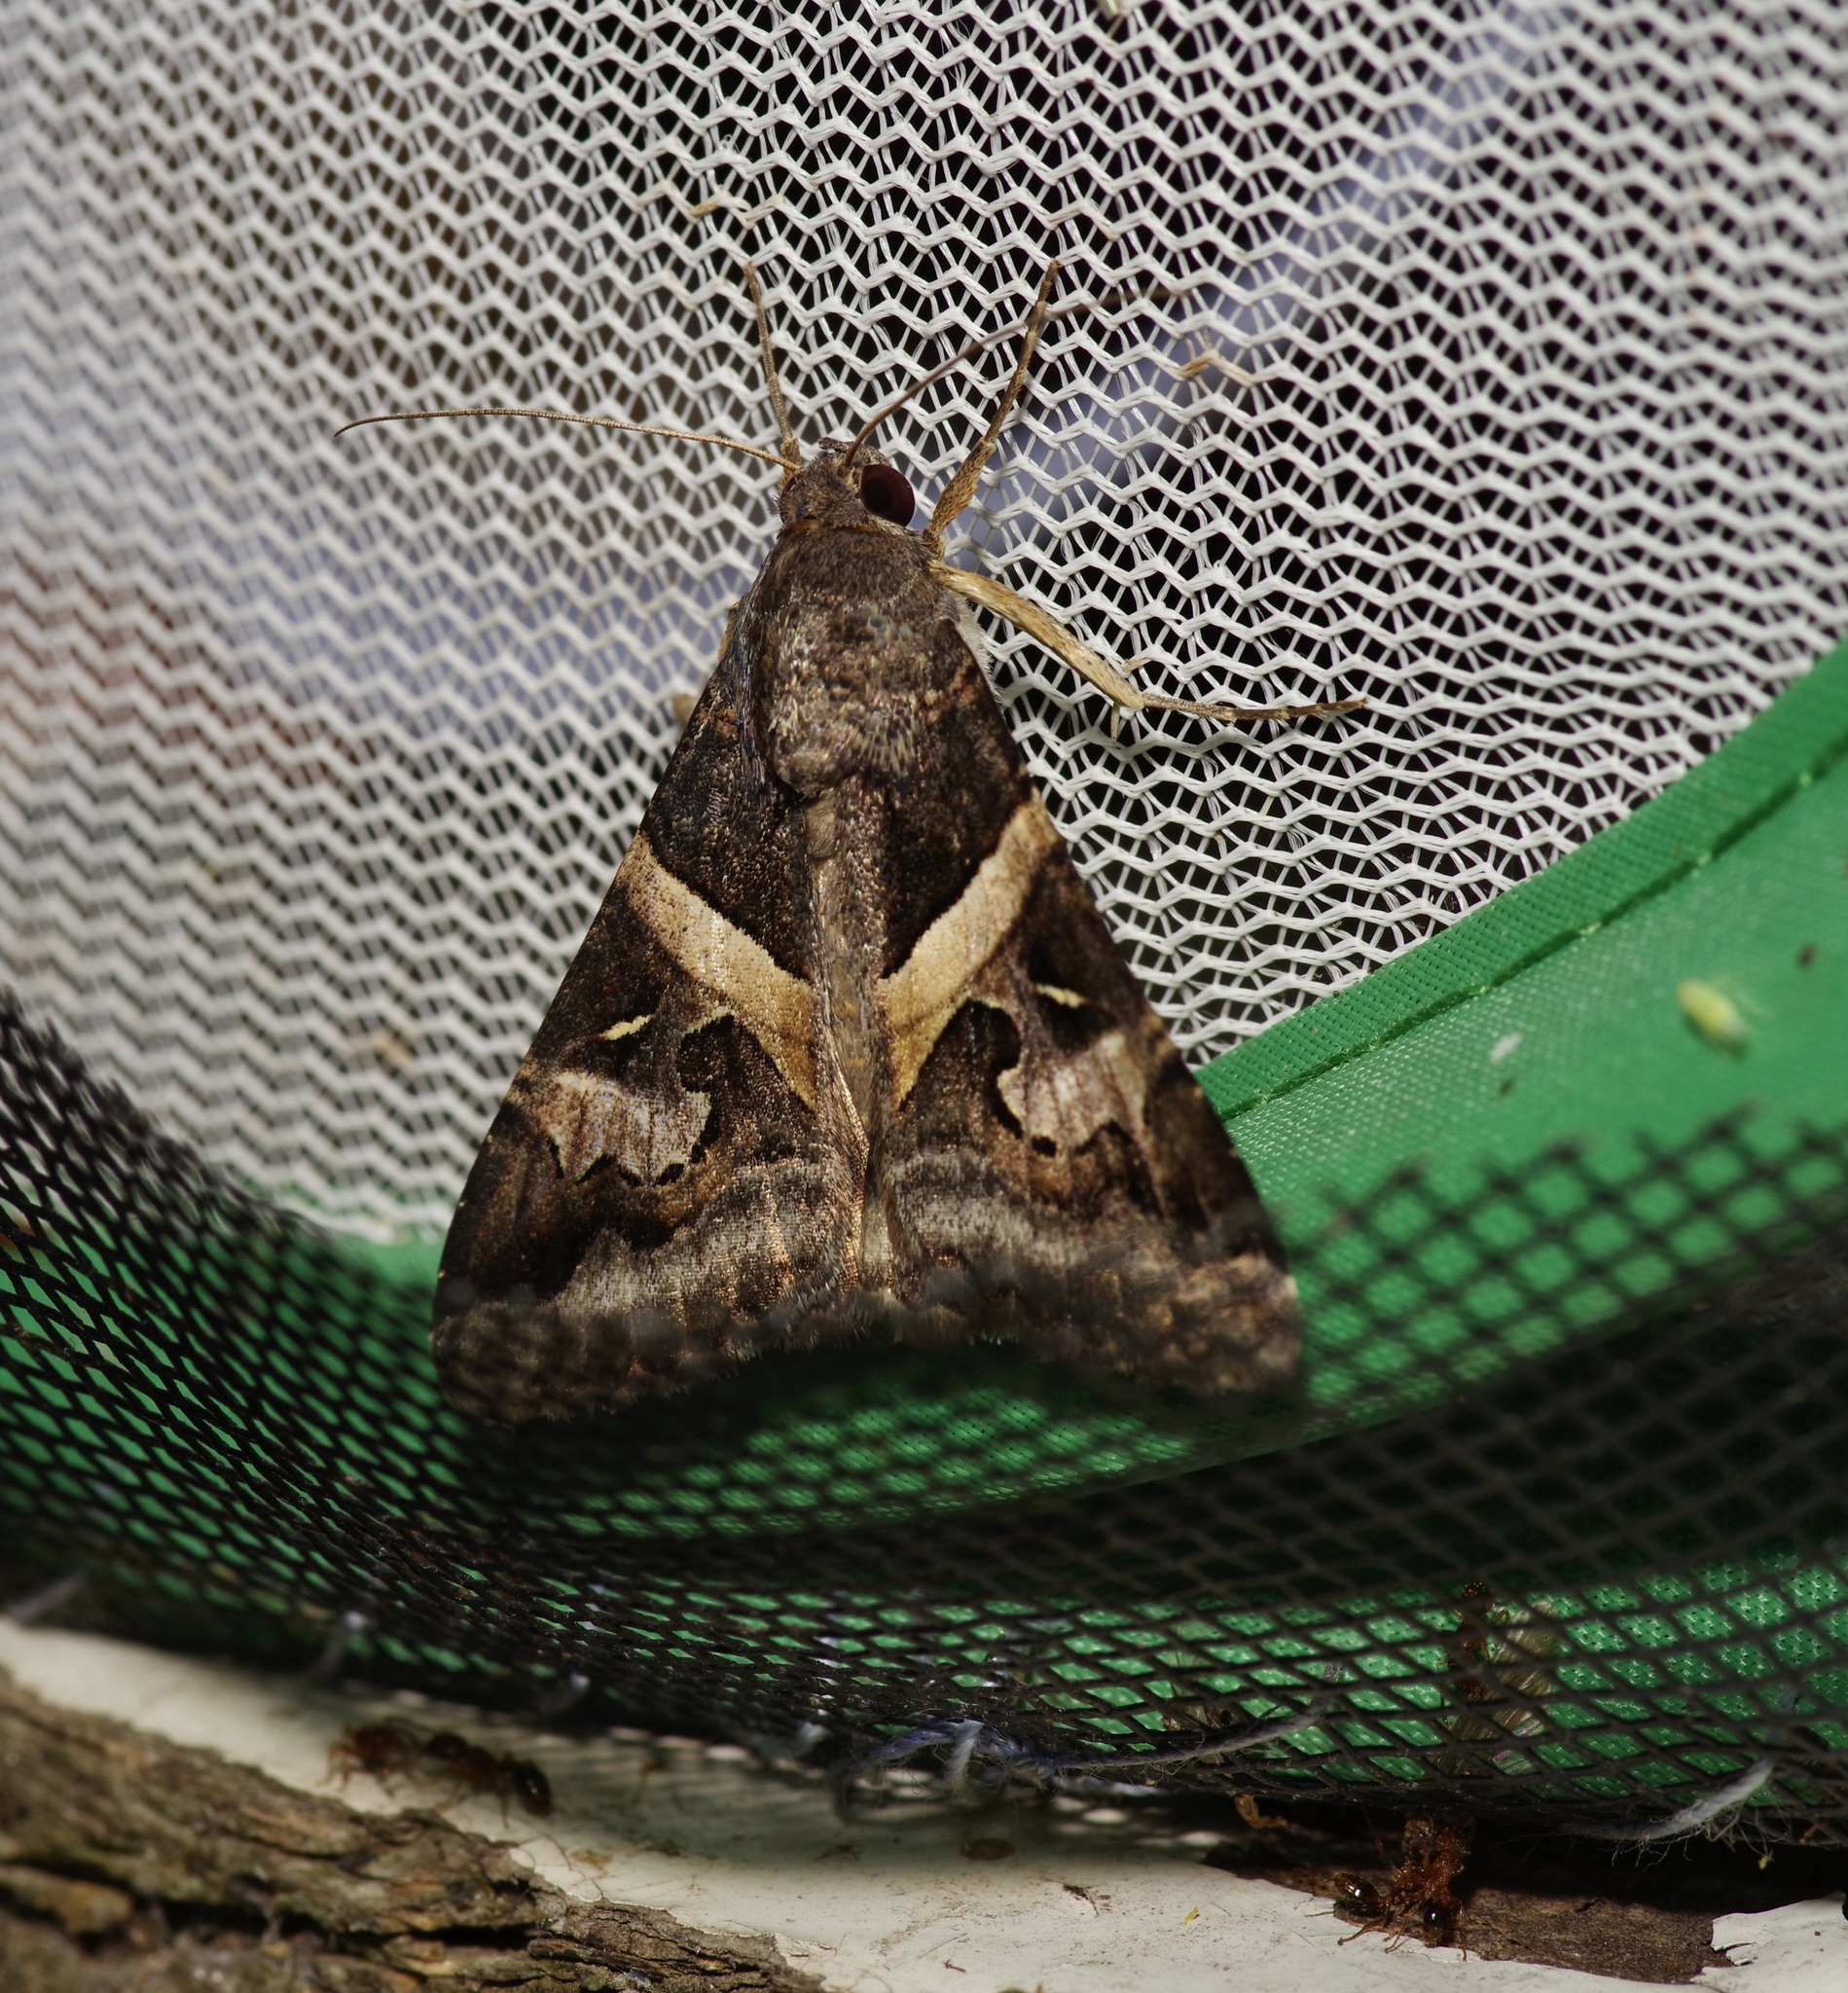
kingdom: Animalia
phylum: Arthropoda
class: Insecta
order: Lepidoptera
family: Erebidae
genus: Melipotis
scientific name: Melipotis indomita
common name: Moth
